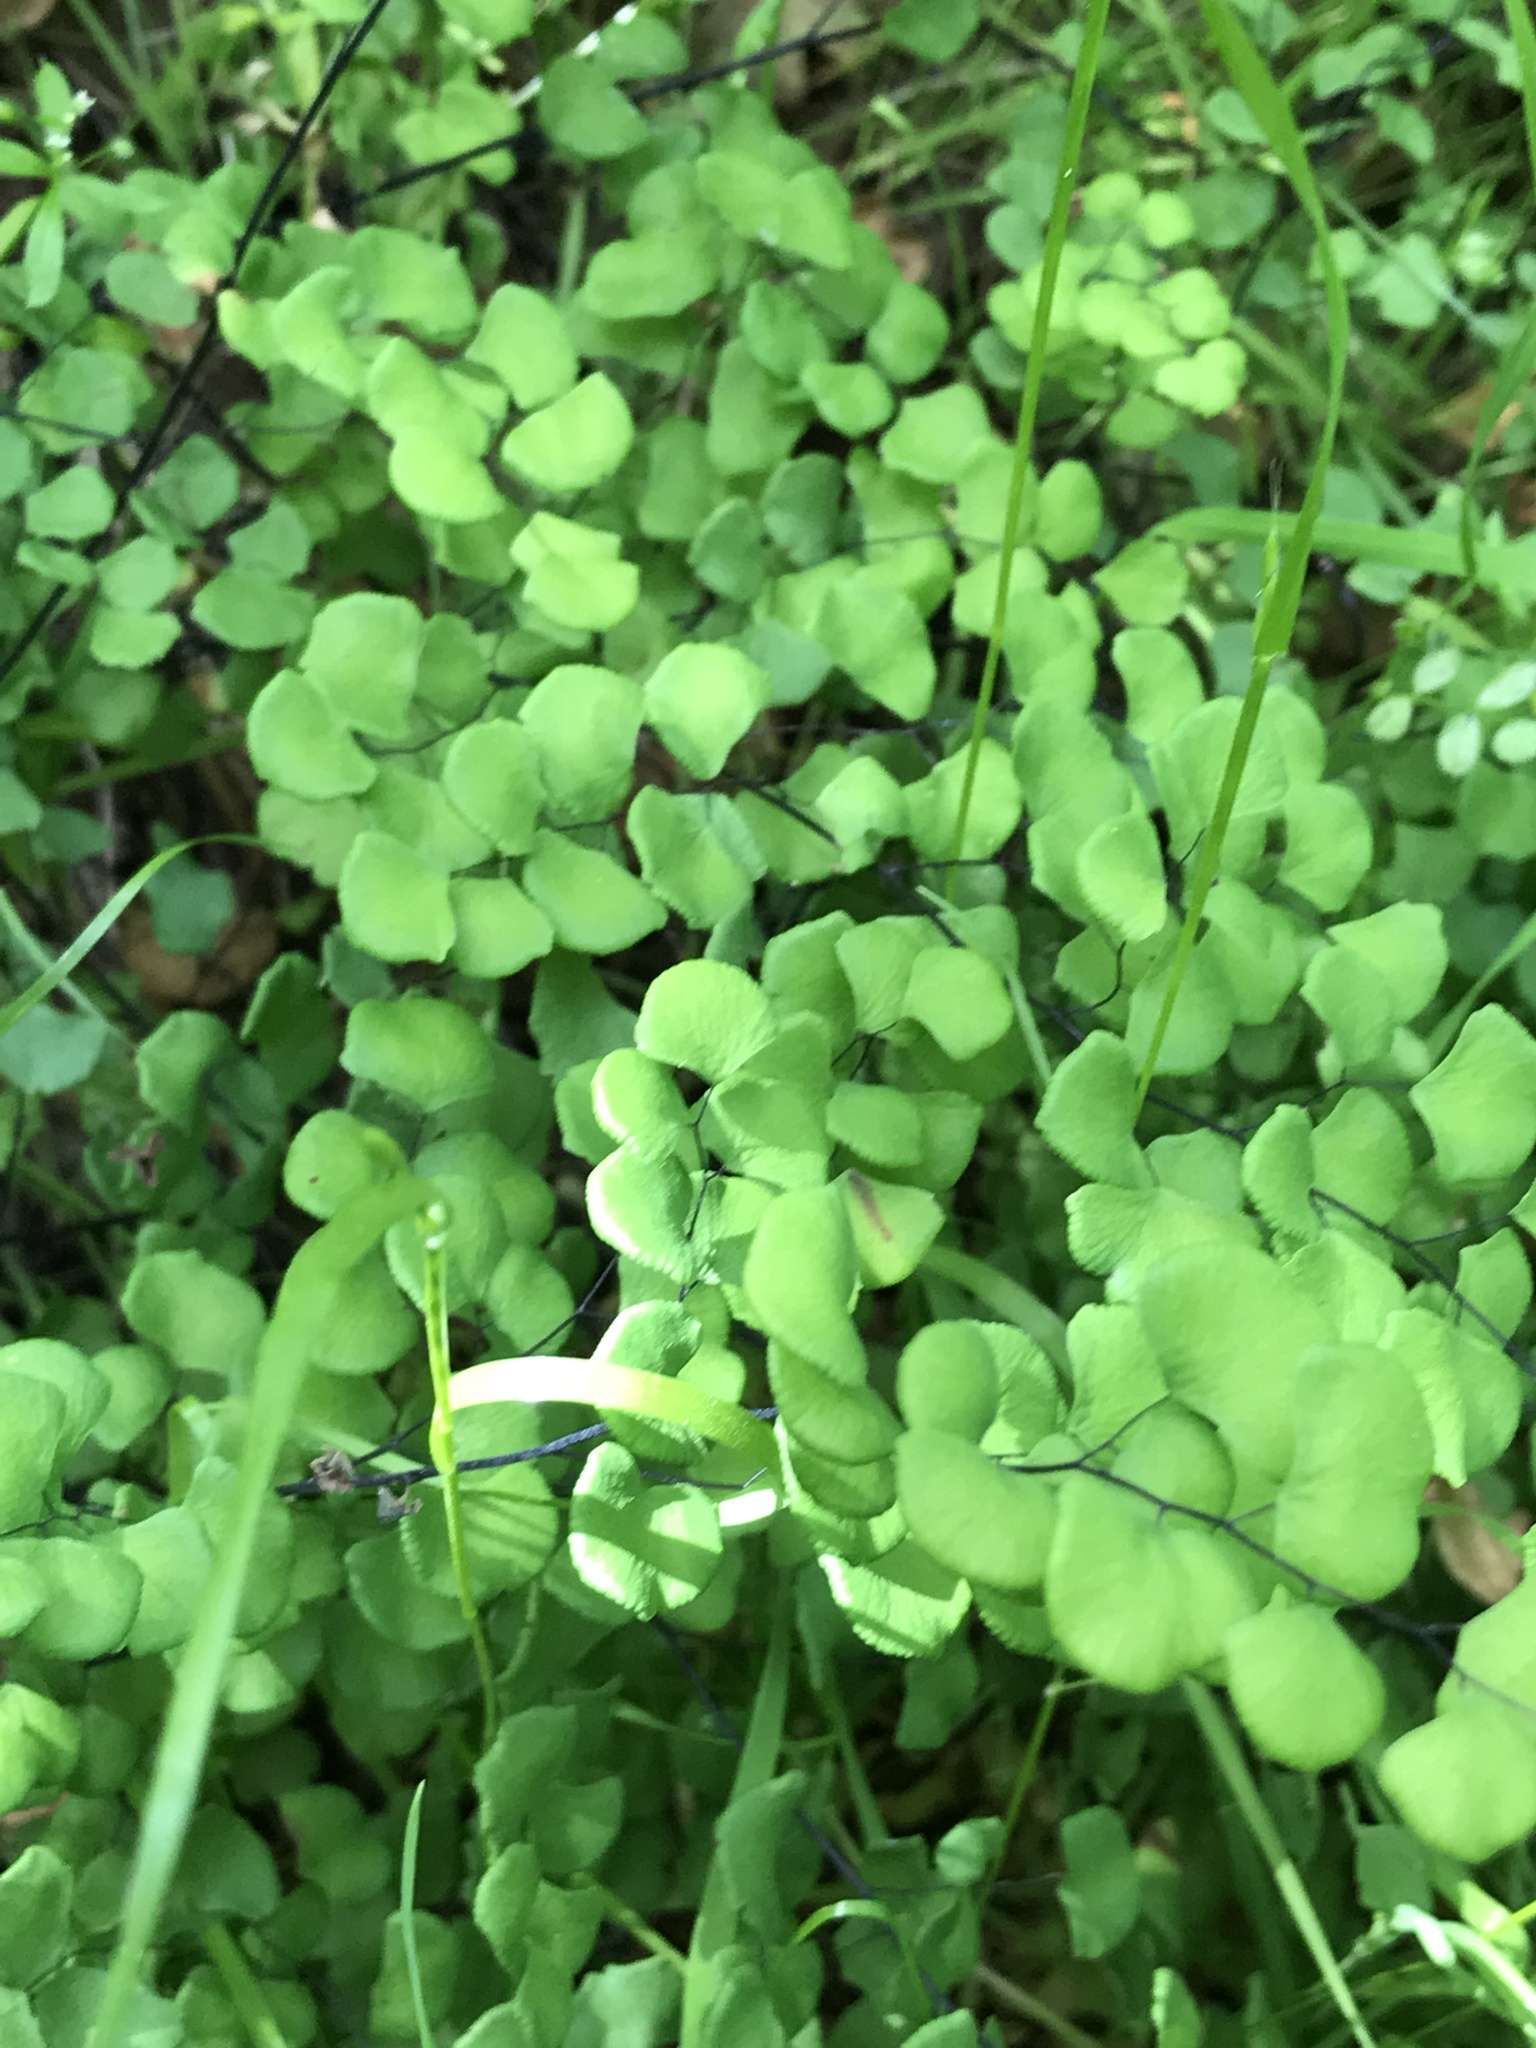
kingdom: Plantae
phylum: Tracheophyta
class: Polypodiopsida
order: Polypodiales
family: Pteridaceae
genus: Adiantum
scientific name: Adiantum jordanii
